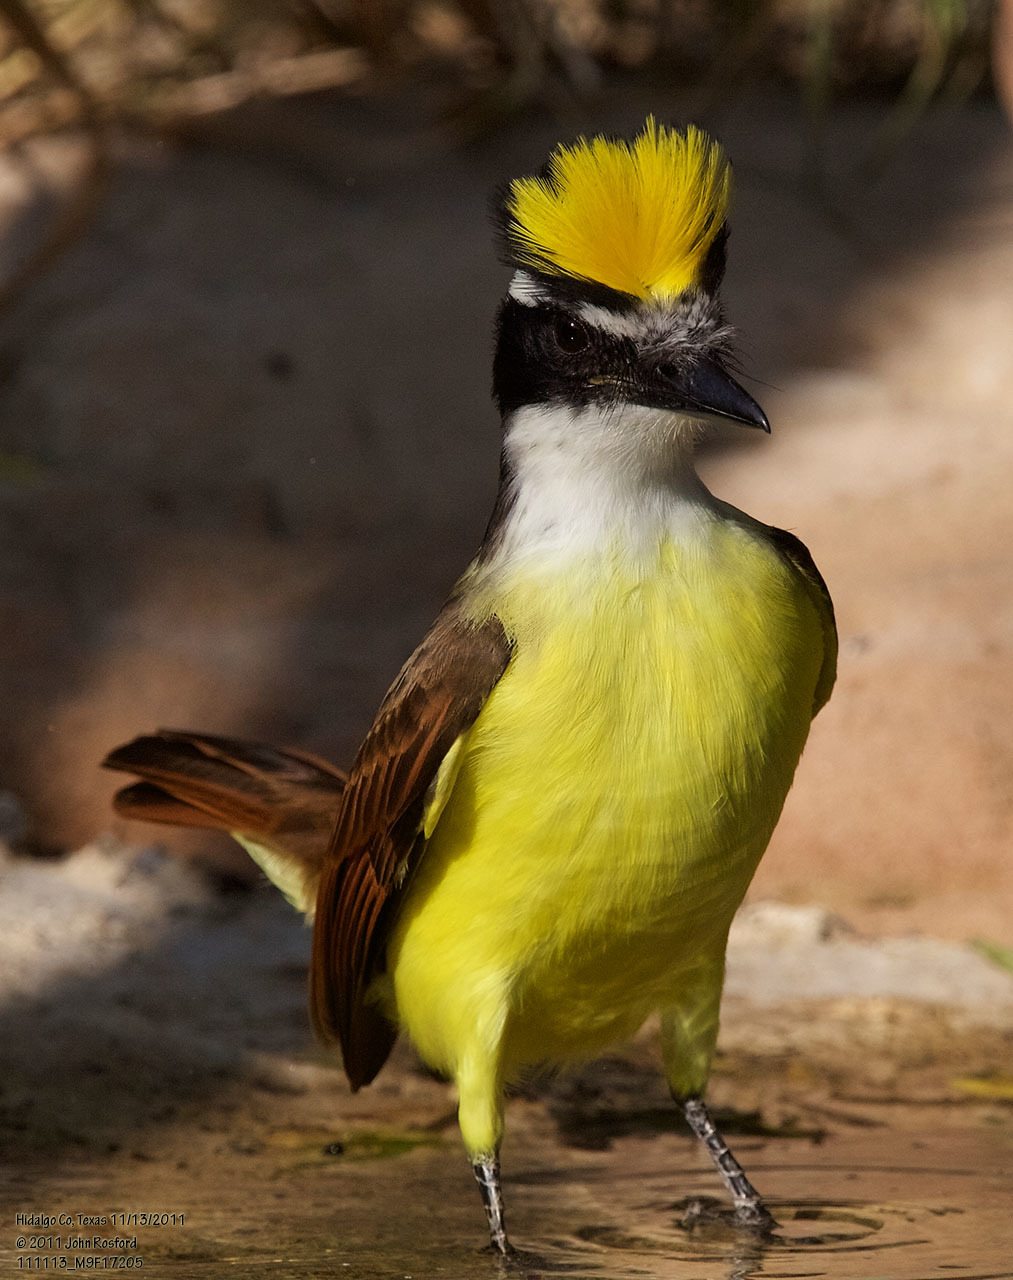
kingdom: Animalia
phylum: Chordata
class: Aves
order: Passeriformes
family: Tyrannidae
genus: Pitangus
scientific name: Pitangus sulphuratus
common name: Great kiskadee
